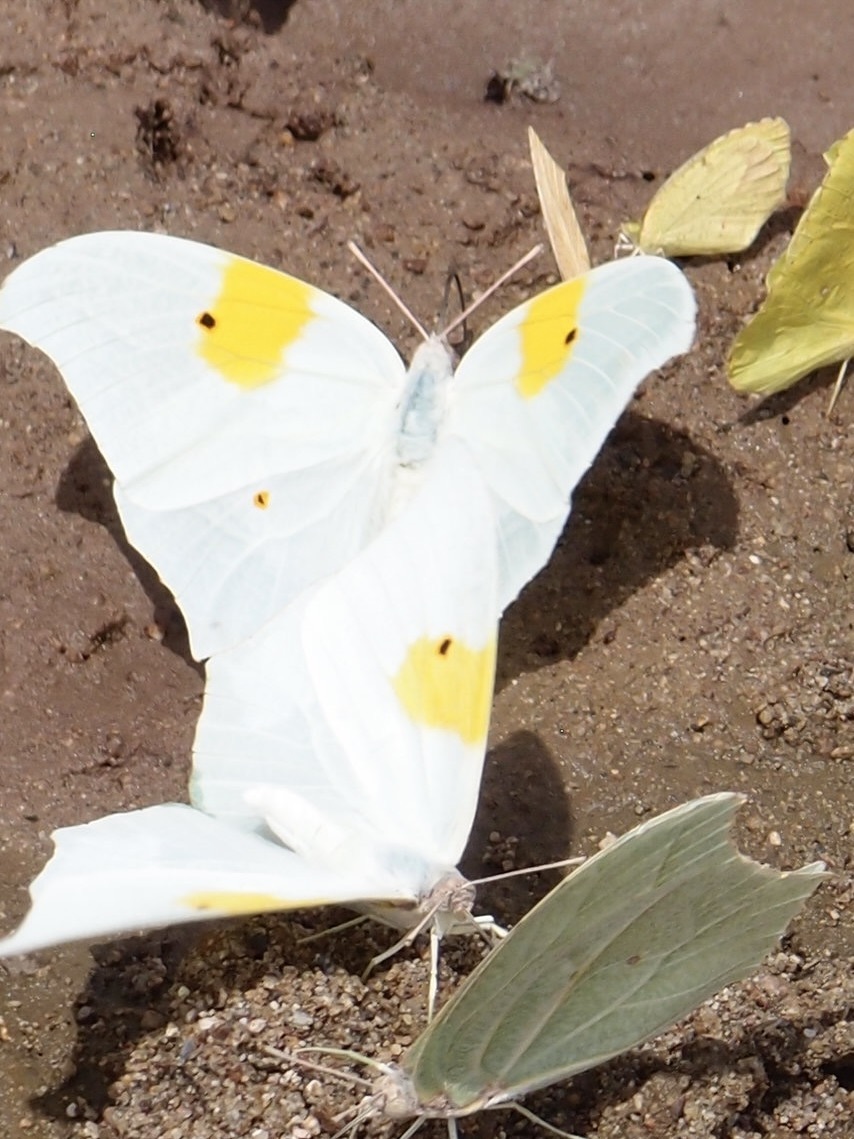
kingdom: Animalia
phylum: Arthropoda
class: Insecta
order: Lepidoptera
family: Pieridae
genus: Anteos
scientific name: Anteos clorinde
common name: White angled sulphur
